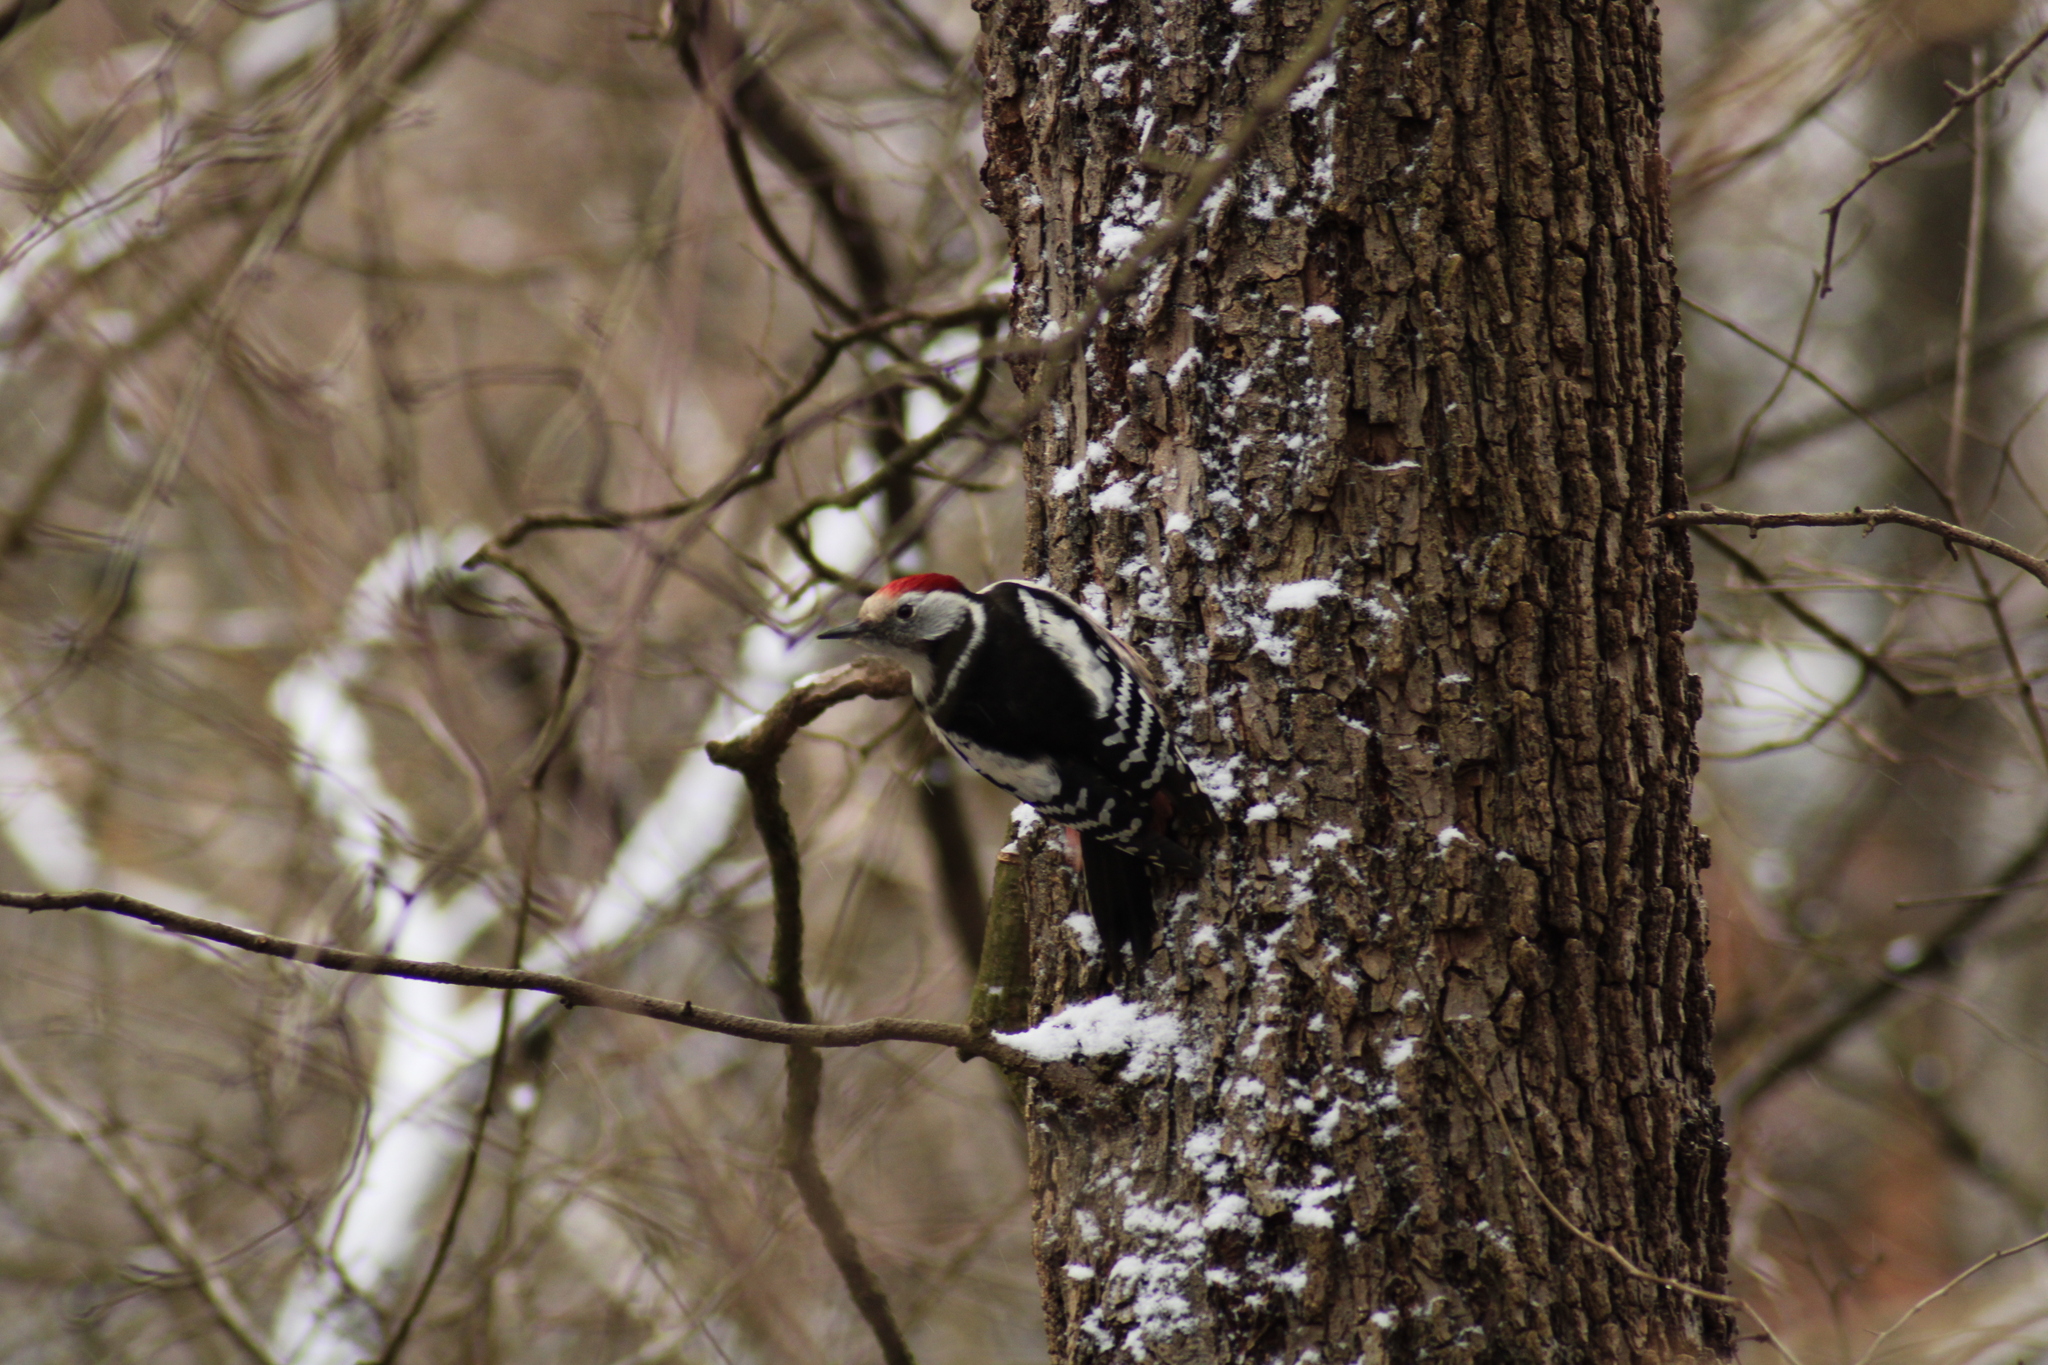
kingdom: Animalia
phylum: Chordata
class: Aves
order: Piciformes
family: Picidae
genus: Dendrocoptes
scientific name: Dendrocoptes medius
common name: Middle spotted woodpecker
